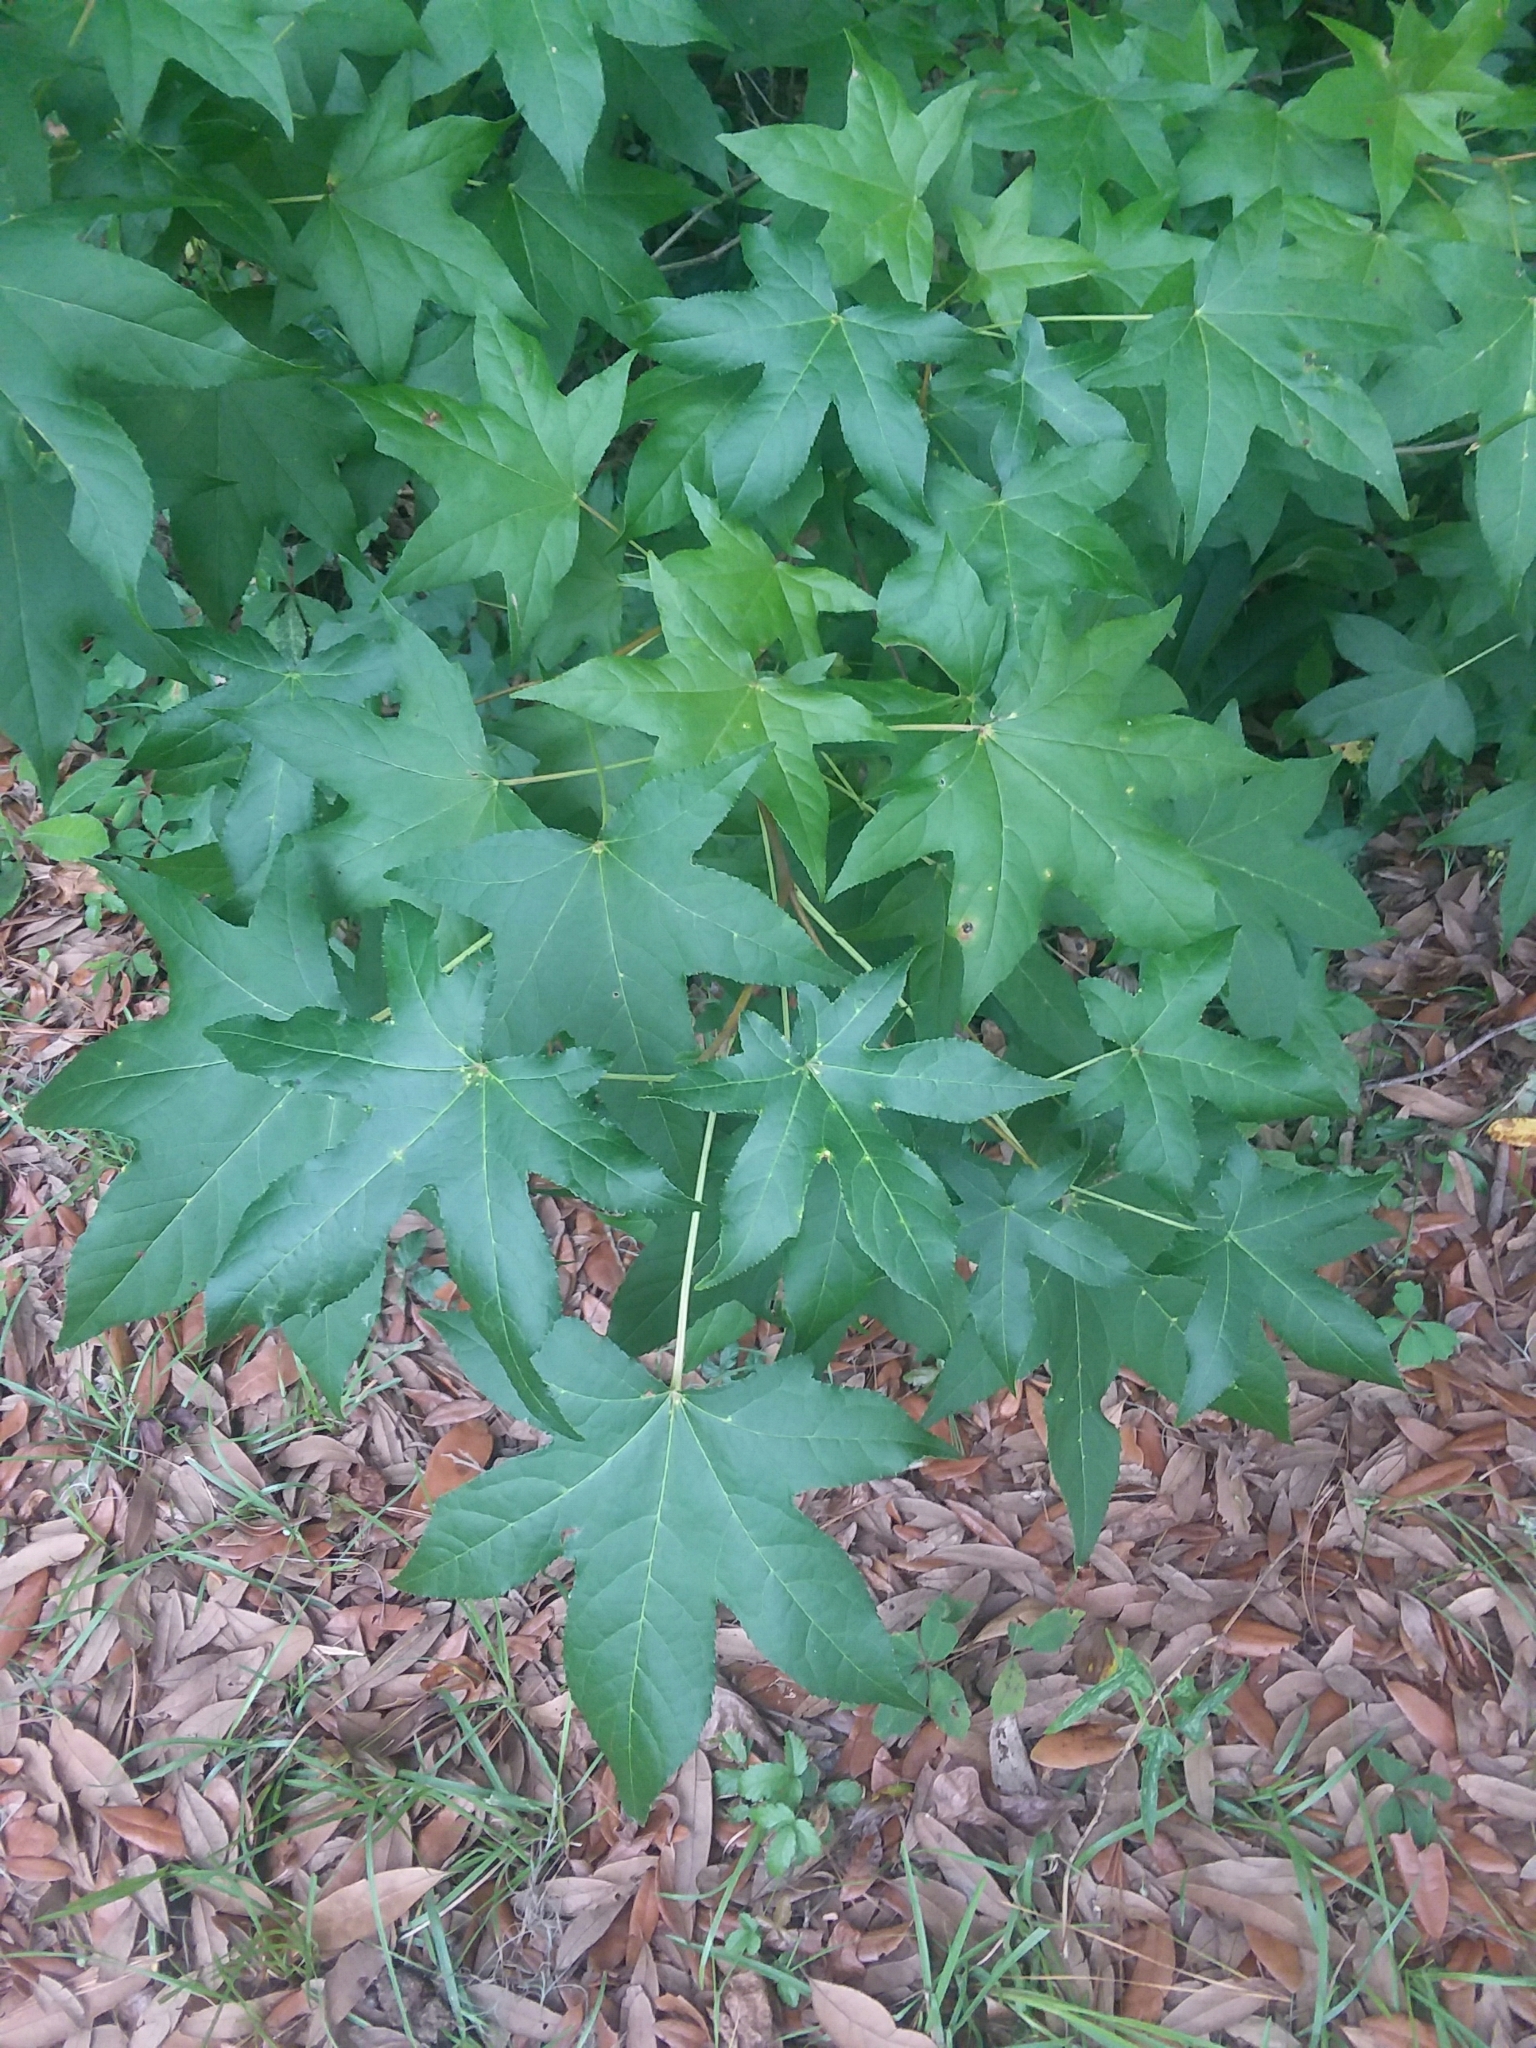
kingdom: Plantae
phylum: Tracheophyta
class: Magnoliopsida
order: Saxifragales
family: Altingiaceae
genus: Liquidambar
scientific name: Liquidambar styraciflua
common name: Sweet gum
